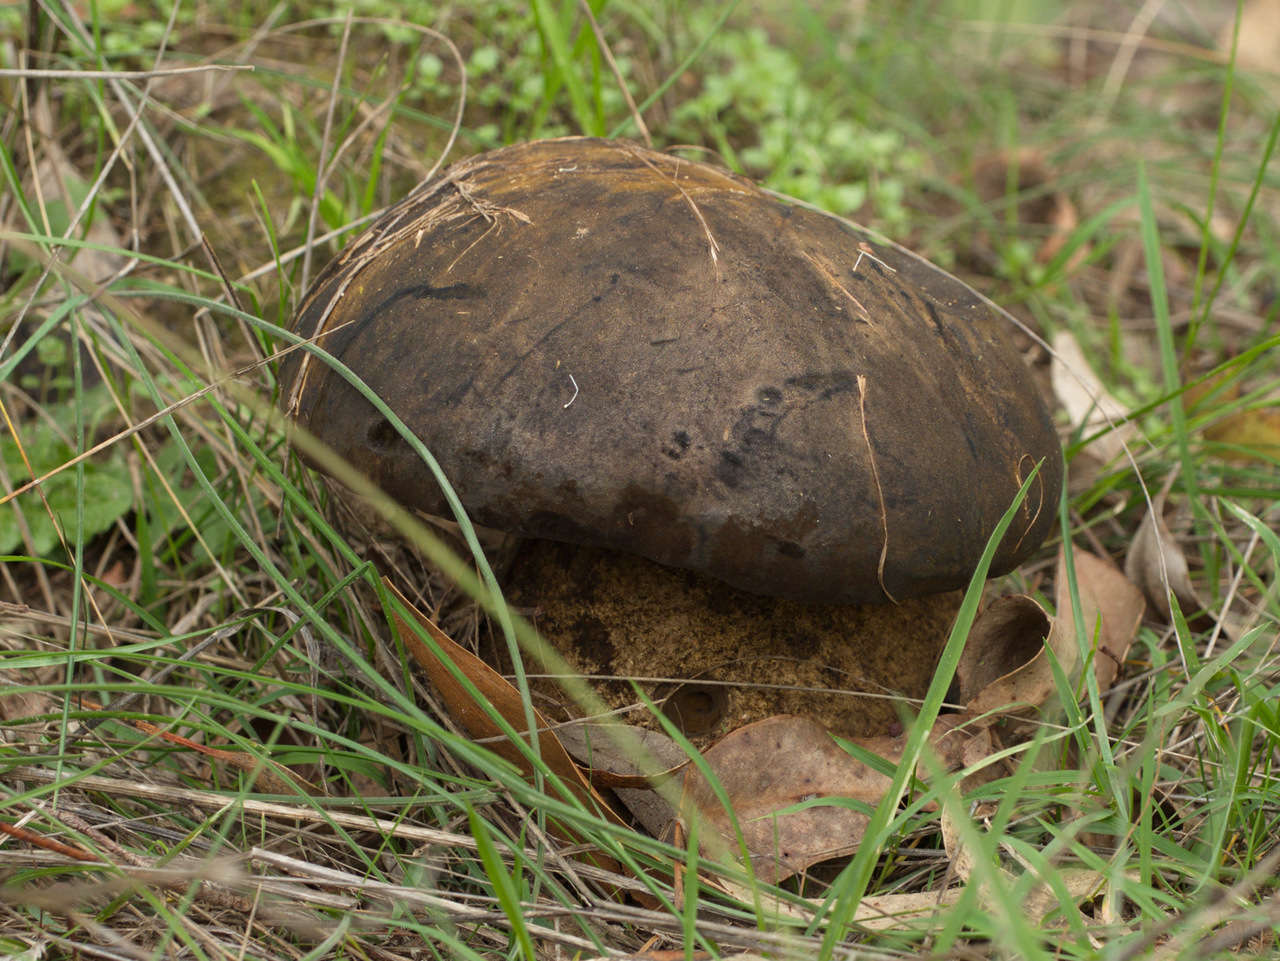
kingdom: Fungi
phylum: Basidiomycota
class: Agaricomycetes
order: Boletales
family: Boletinellaceae
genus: Phlebopus
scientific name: Phlebopus marginatus
